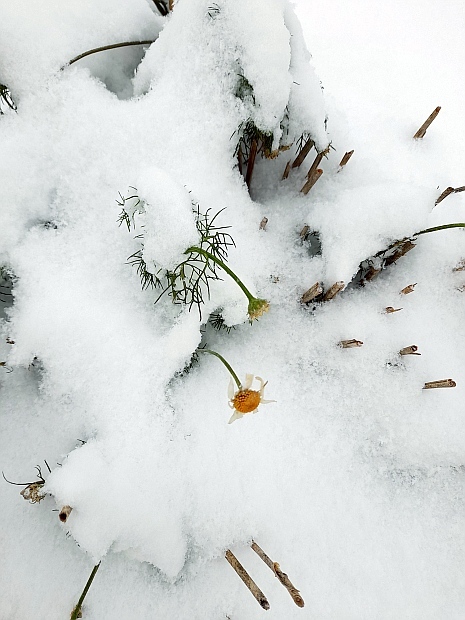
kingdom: Plantae
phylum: Tracheophyta
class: Magnoliopsida
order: Asterales
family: Asteraceae
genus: Tripleurospermum
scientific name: Tripleurospermum inodorum
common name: Scentless mayweed
